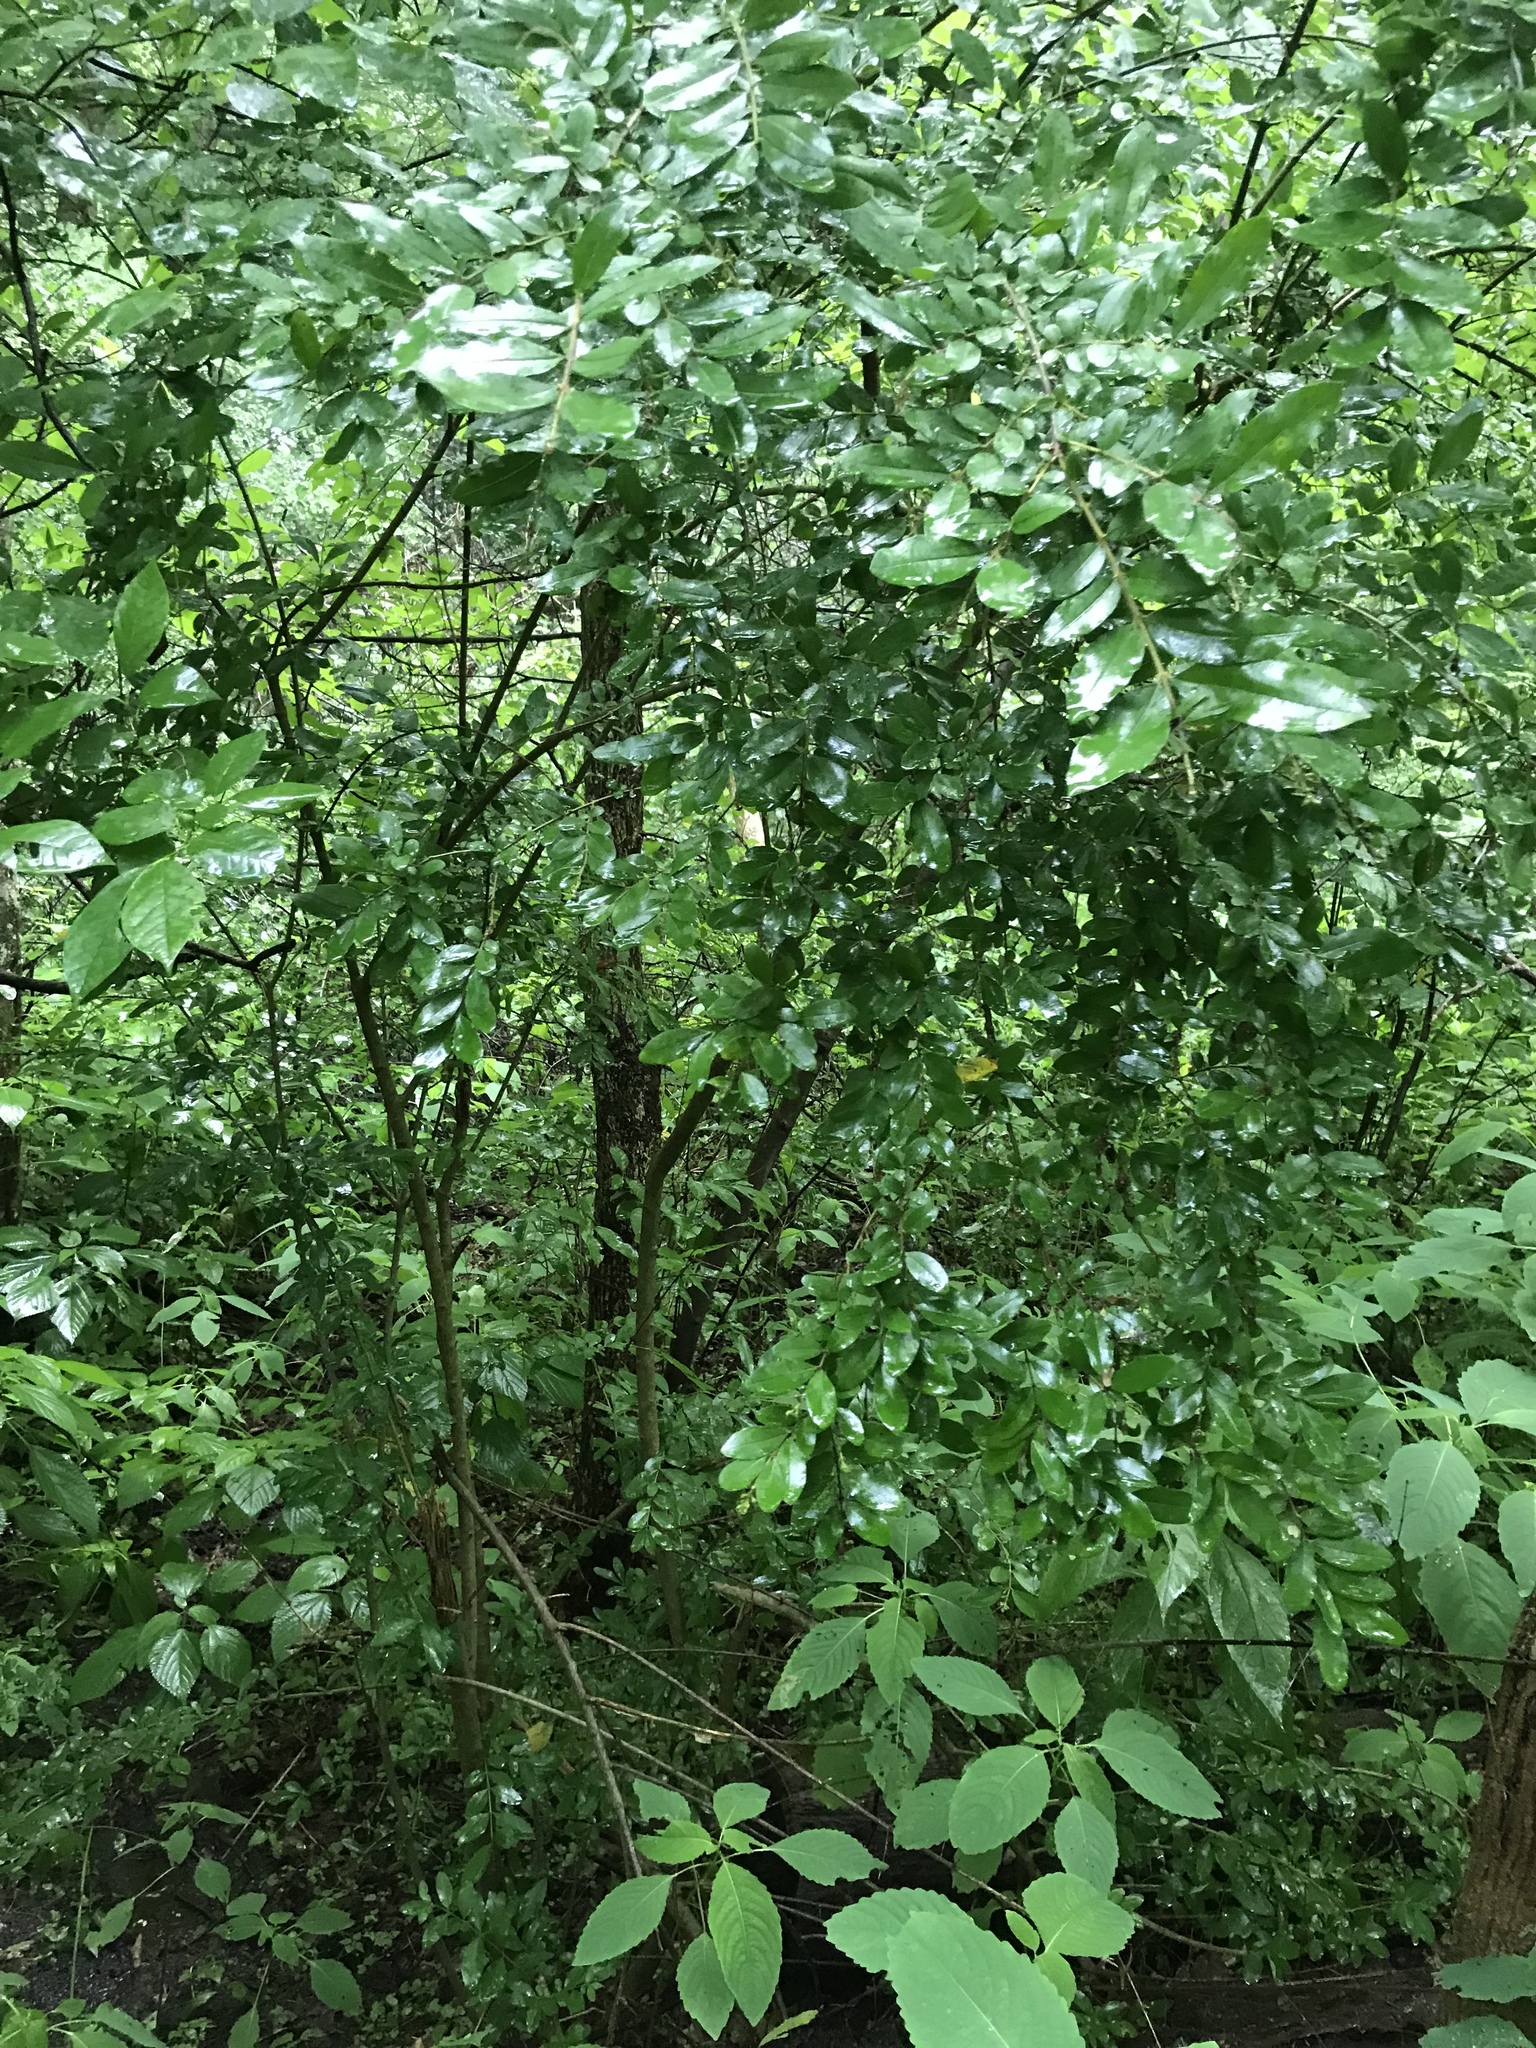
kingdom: Plantae
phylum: Tracheophyta
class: Magnoliopsida
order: Lamiales
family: Oleaceae
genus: Ligustrum
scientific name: Ligustrum obtusifolium
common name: Border privet
